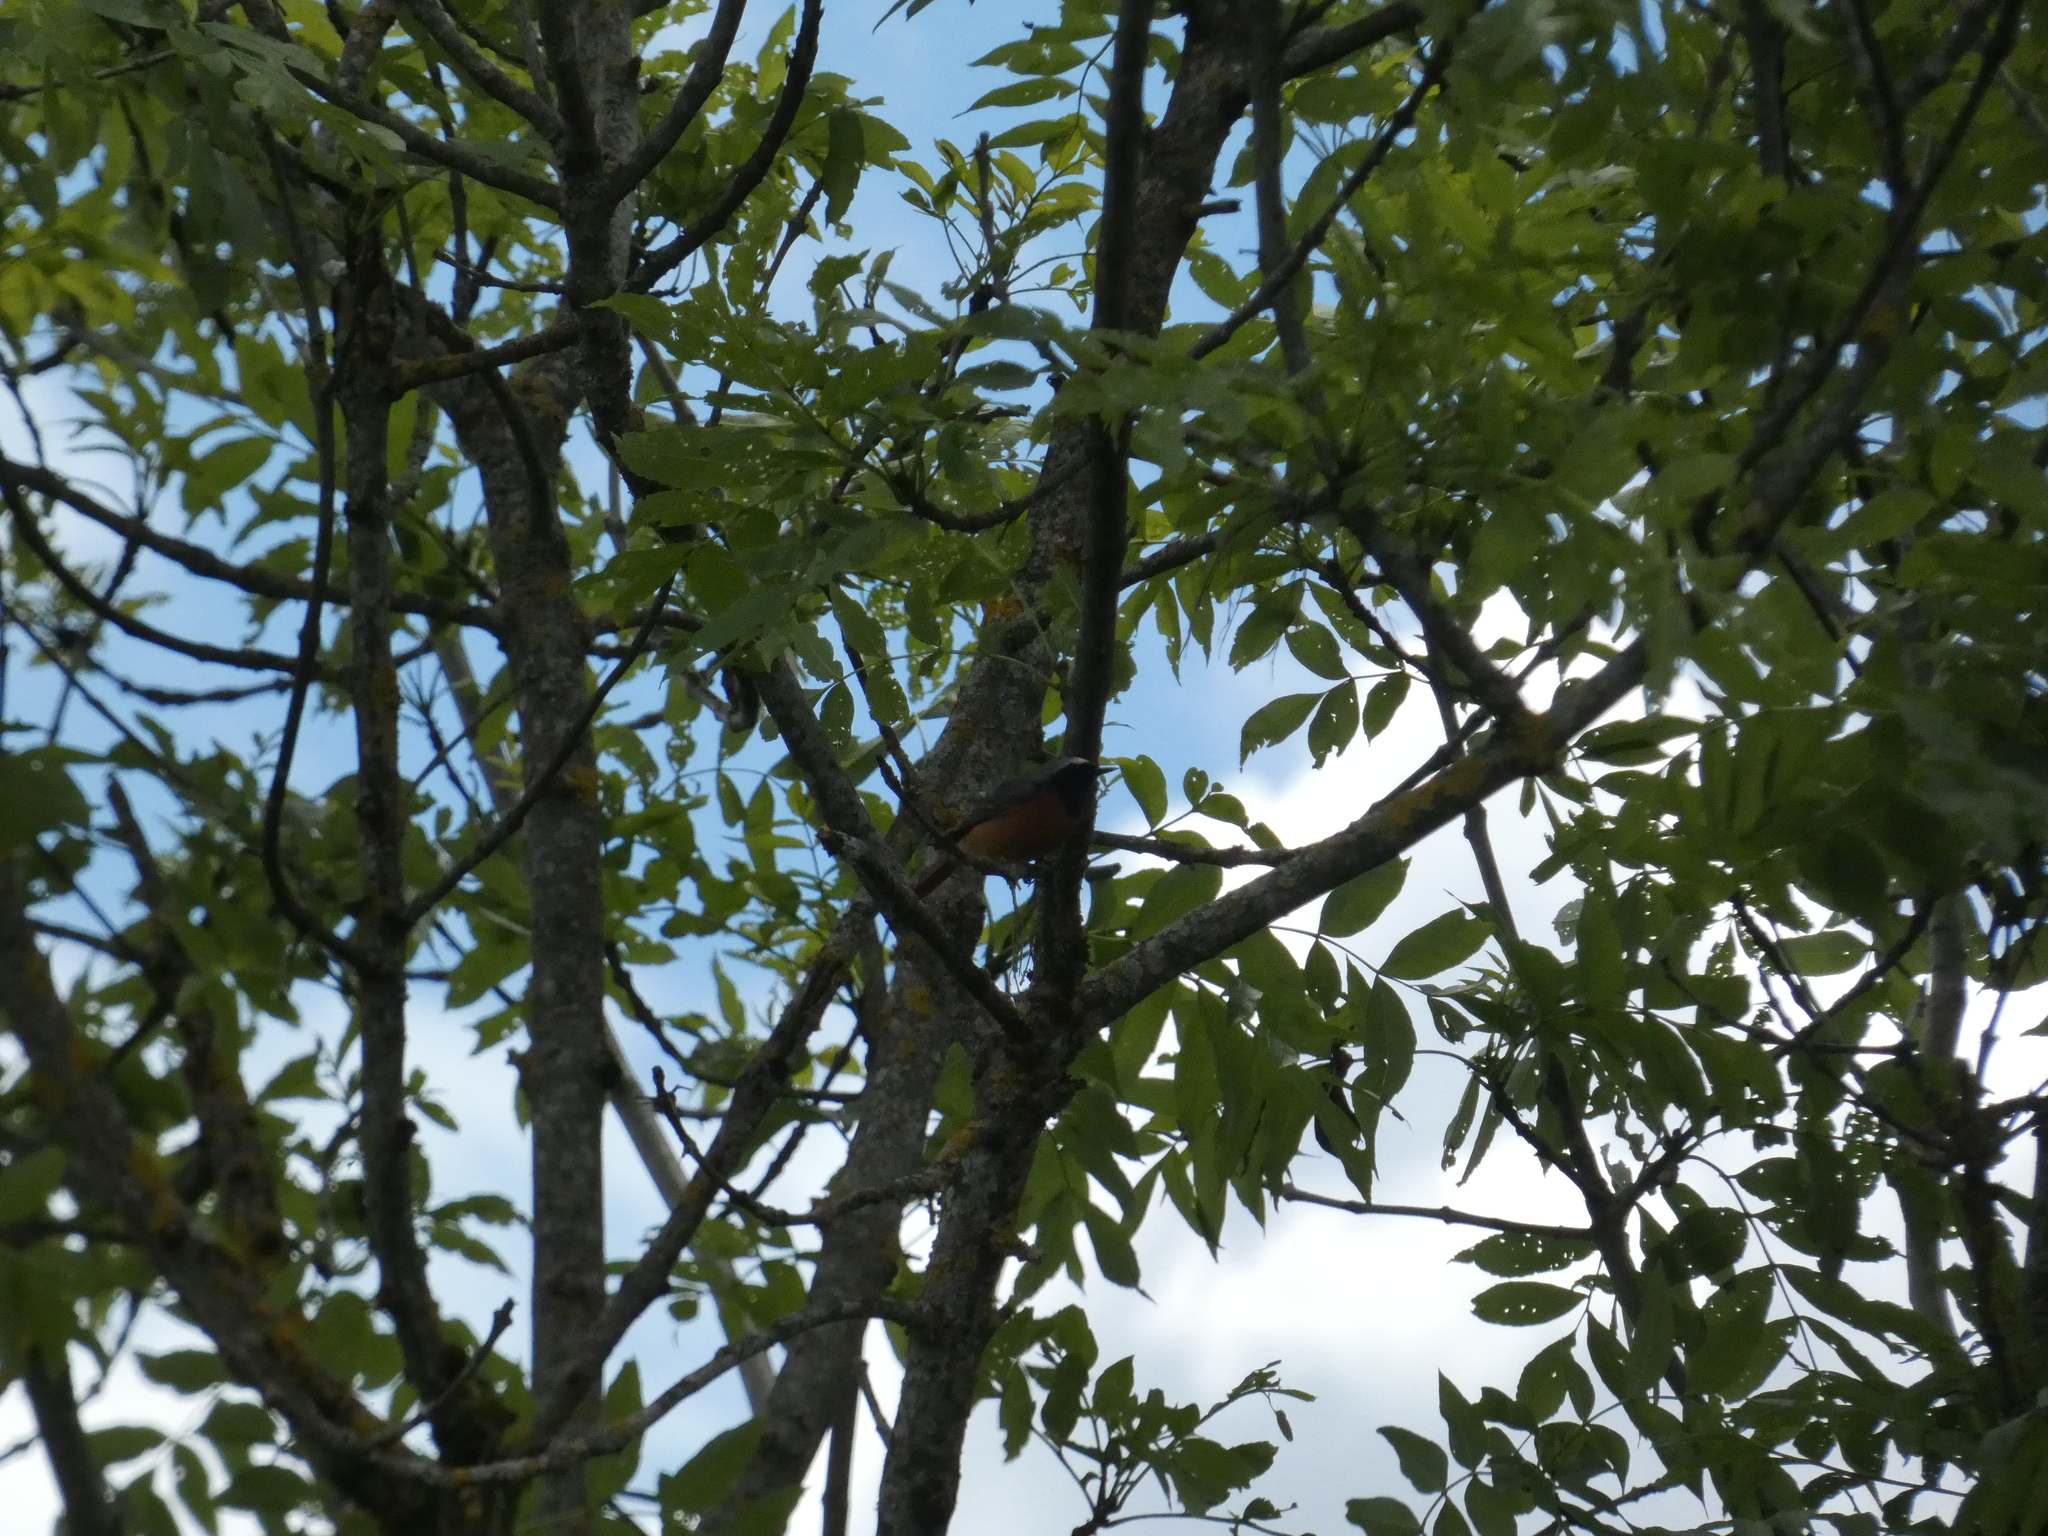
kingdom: Animalia
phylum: Chordata
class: Aves
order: Passeriformes
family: Muscicapidae
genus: Phoenicurus
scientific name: Phoenicurus phoenicurus
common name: Common redstart
